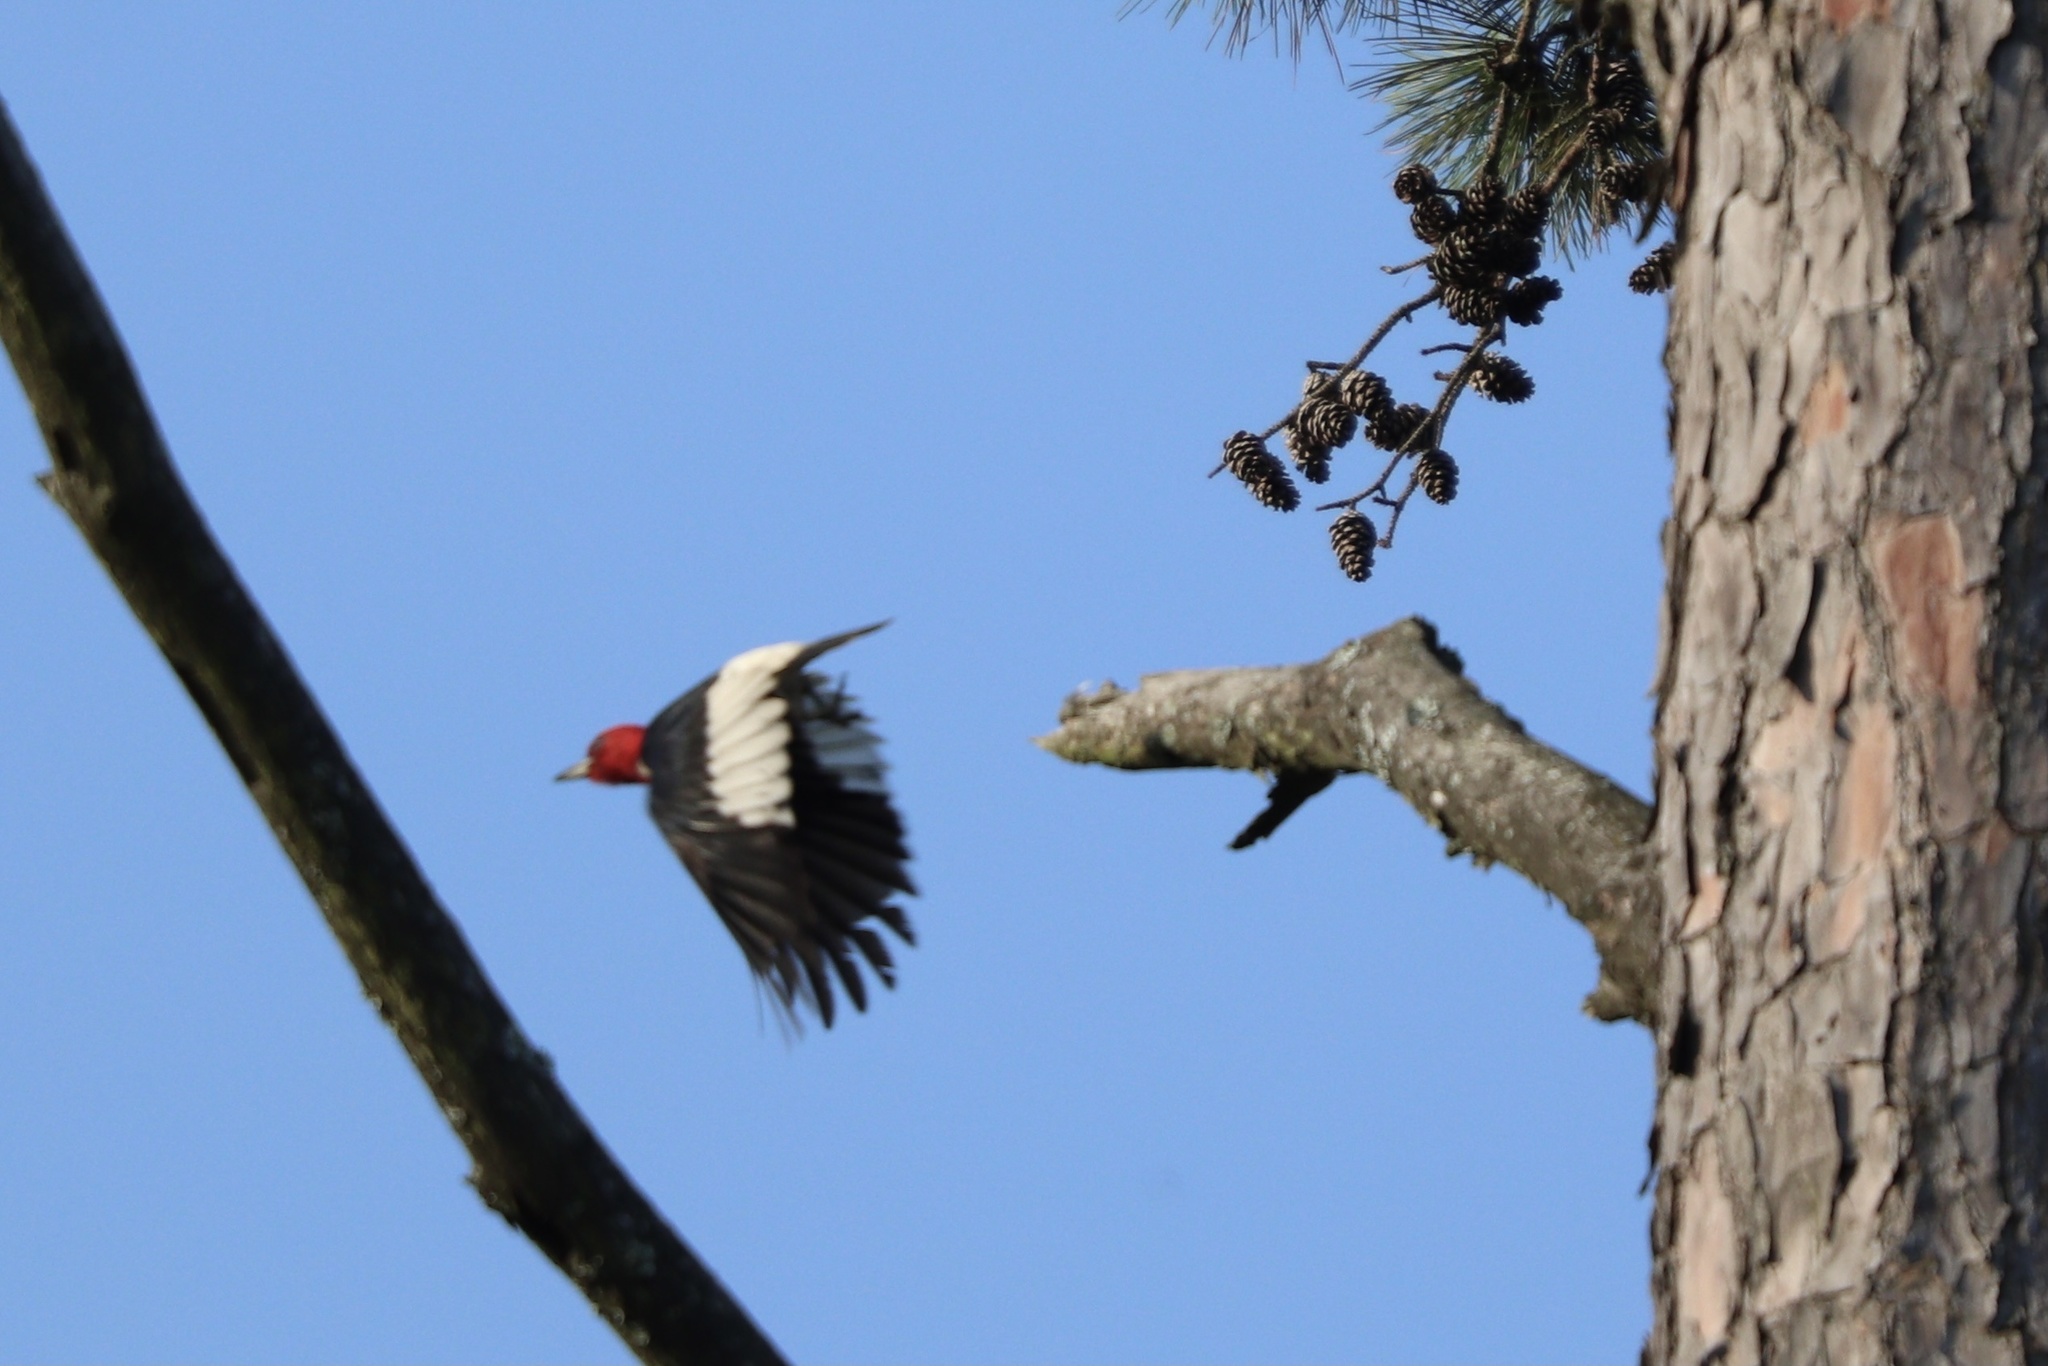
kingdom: Animalia
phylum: Chordata
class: Aves
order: Piciformes
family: Picidae
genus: Melanerpes
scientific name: Melanerpes erythrocephalus
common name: Red-headed woodpecker
